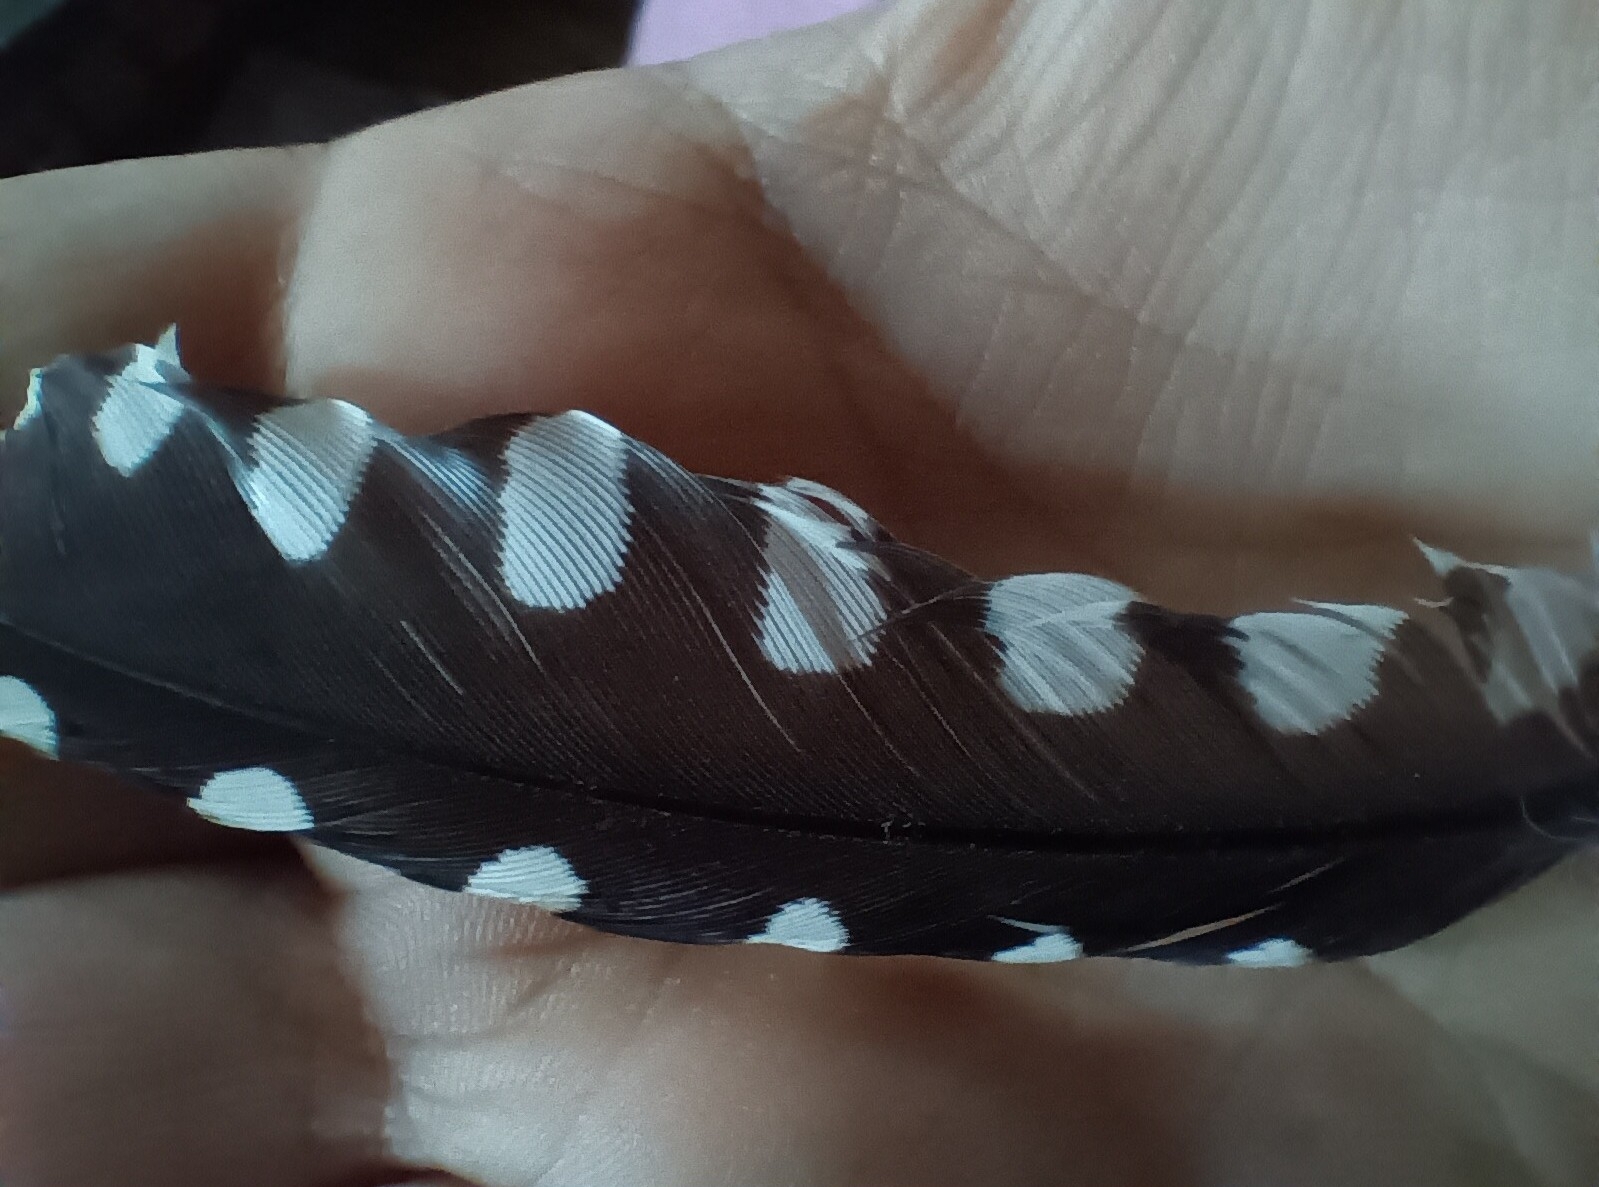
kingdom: Animalia
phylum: Chordata
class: Aves
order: Piciformes
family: Picidae
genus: Melanerpes
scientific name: Melanerpes carolinus
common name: Red-bellied woodpecker
